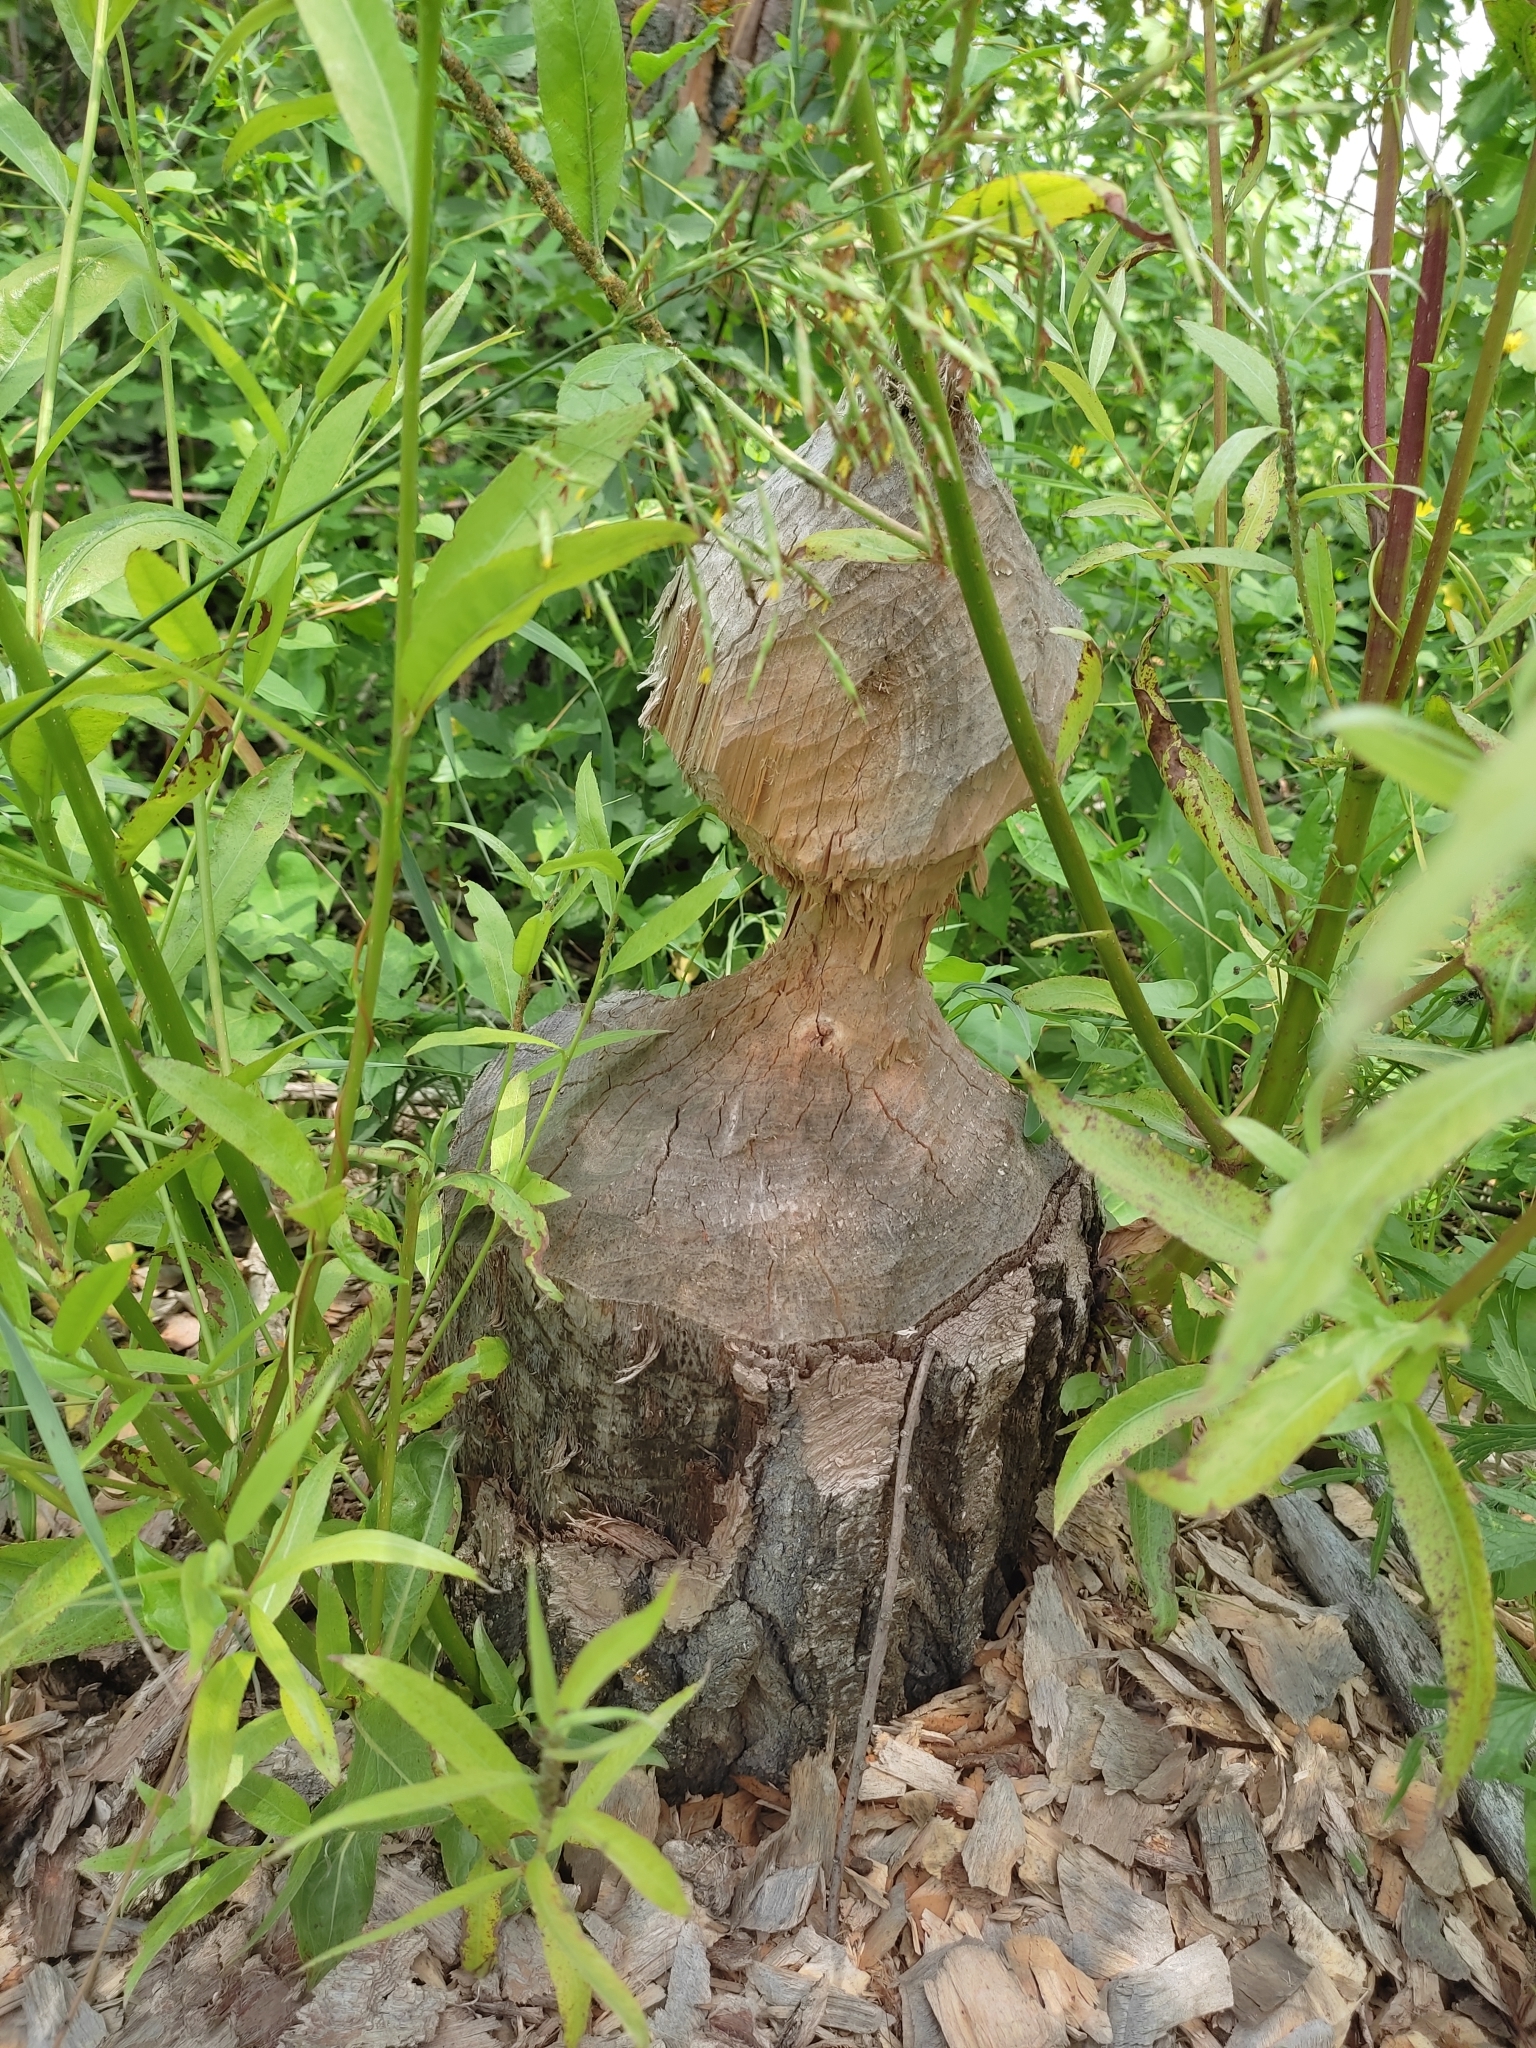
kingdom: Animalia
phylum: Chordata
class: Mammalia
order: Rodentia
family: Castoridae
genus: Castor
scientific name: Castor fiber
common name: Eurasian beaver
